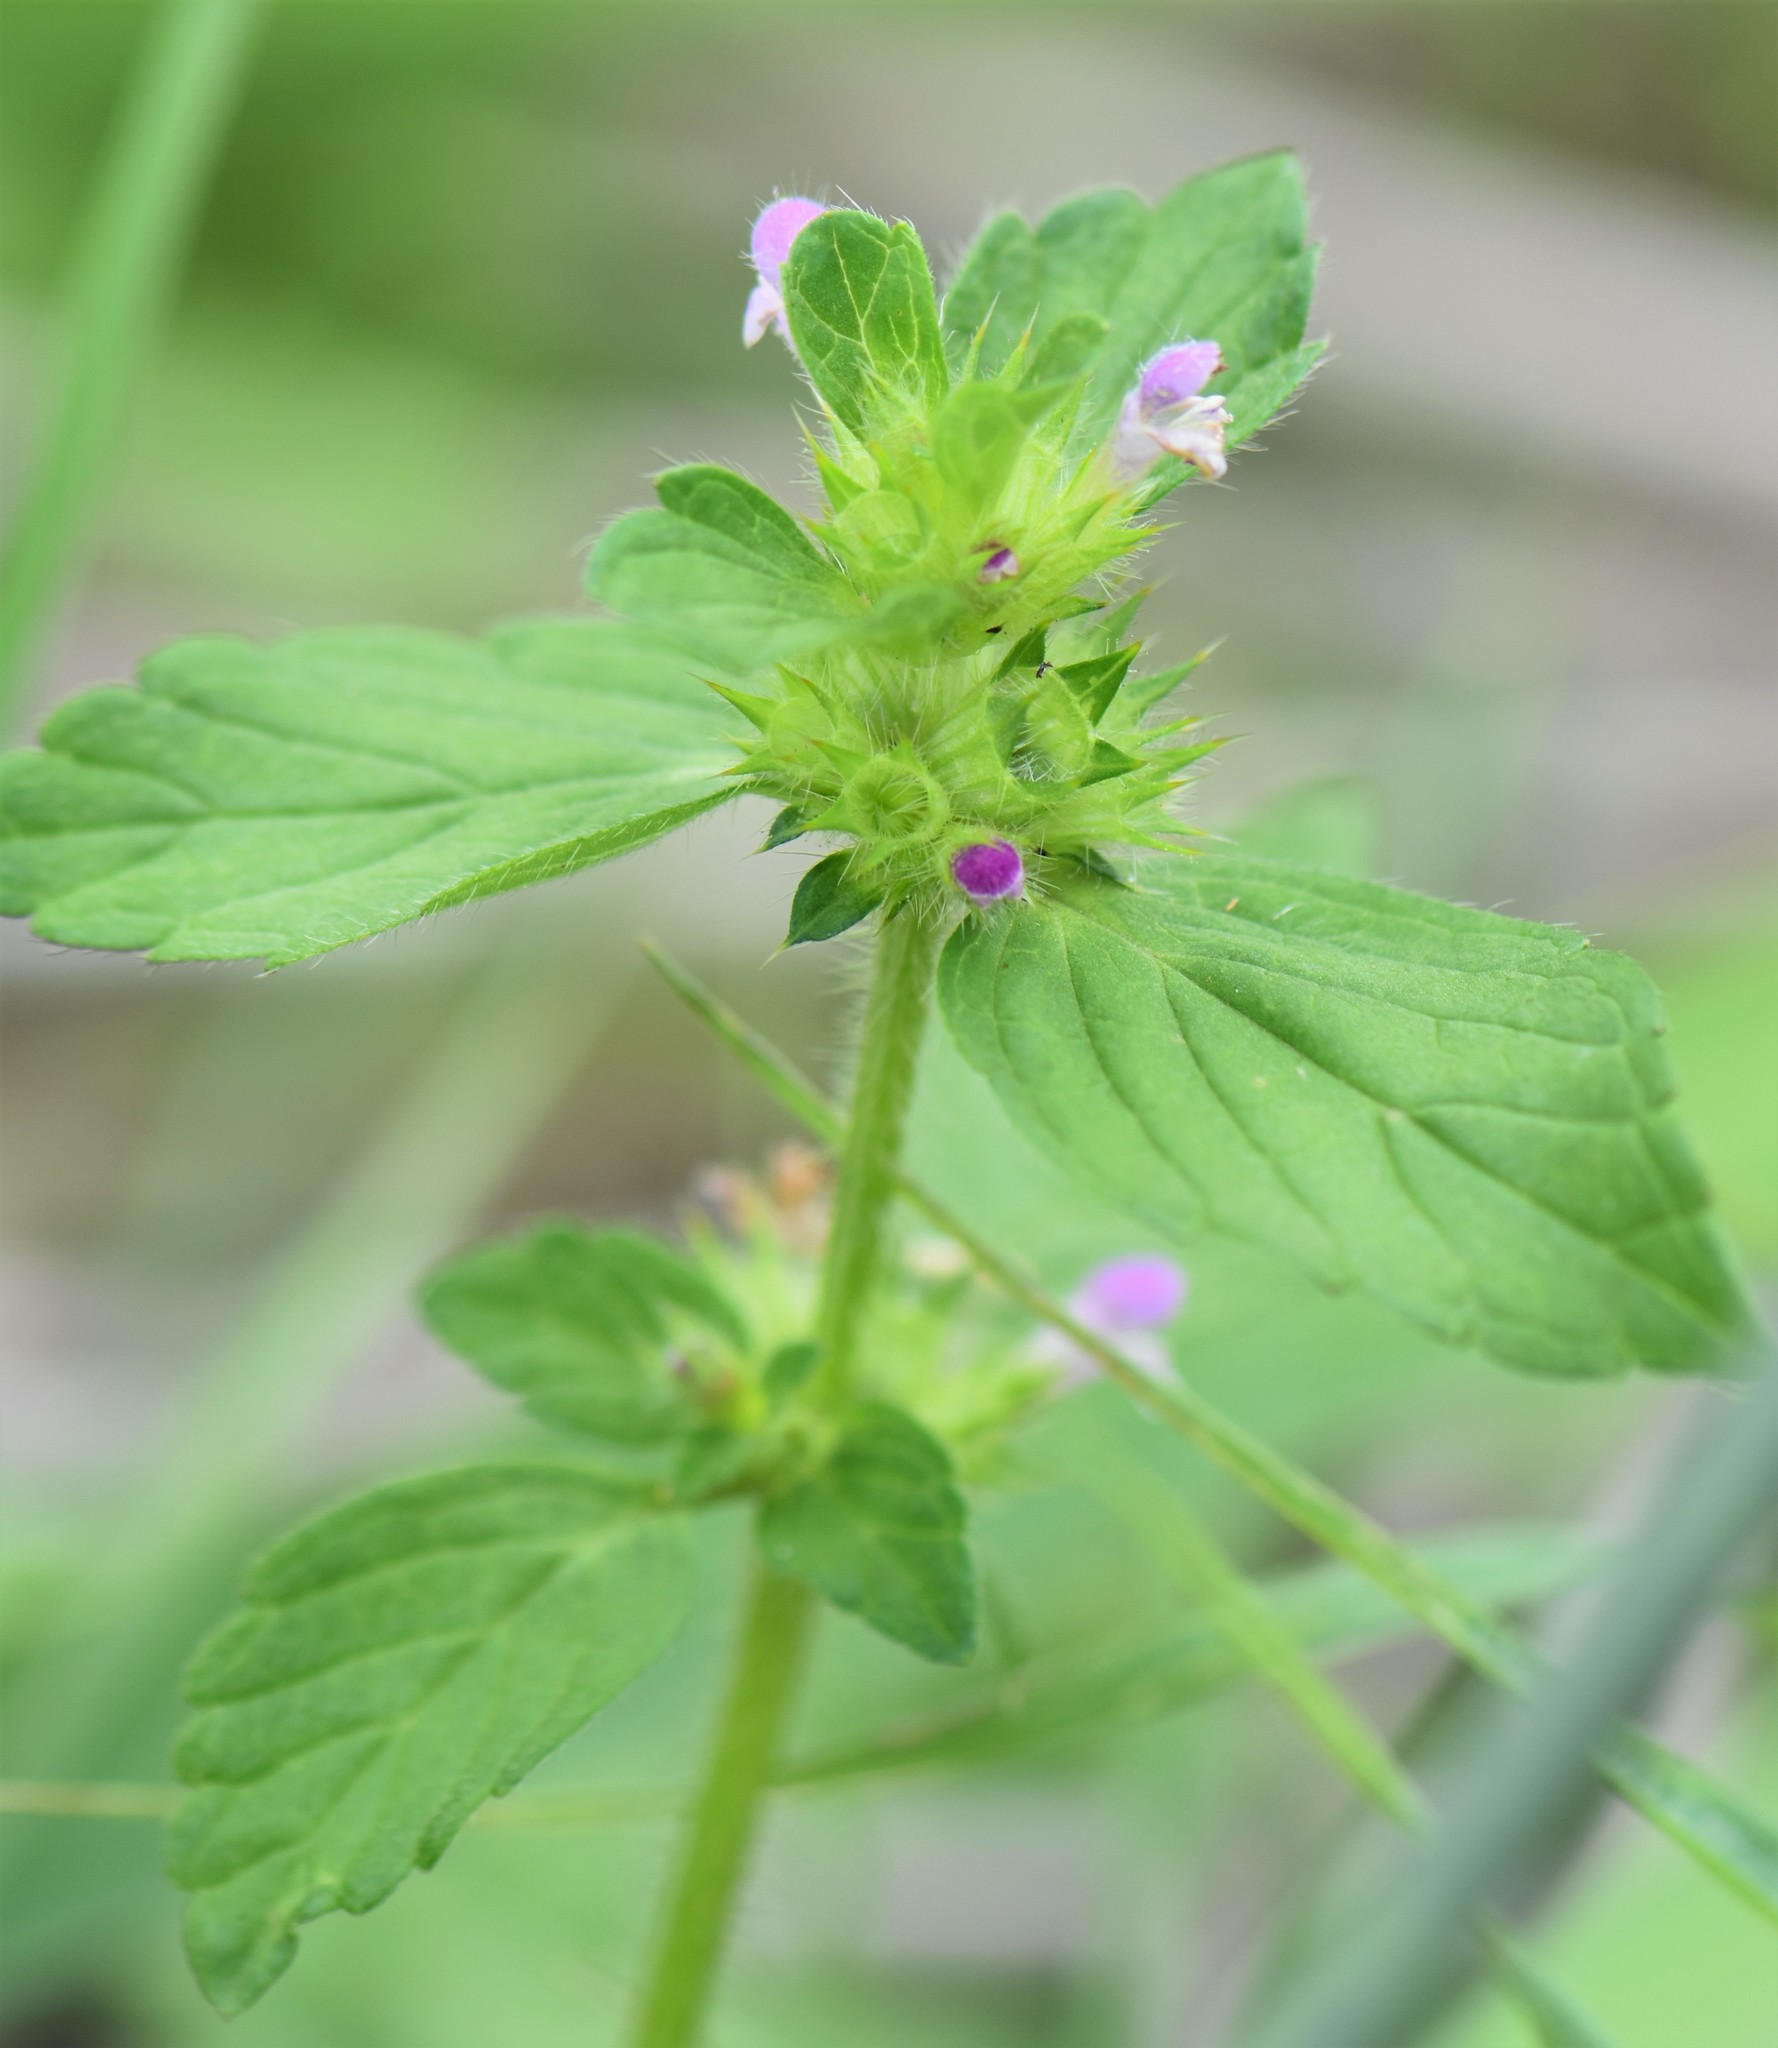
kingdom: Plantae
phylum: Tracheophyta
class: Magnoliopsida
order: Lamiales
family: Lamiaceae
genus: Galeopsis
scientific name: Galeopsis bifida
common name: Bifid hemp-nettle
